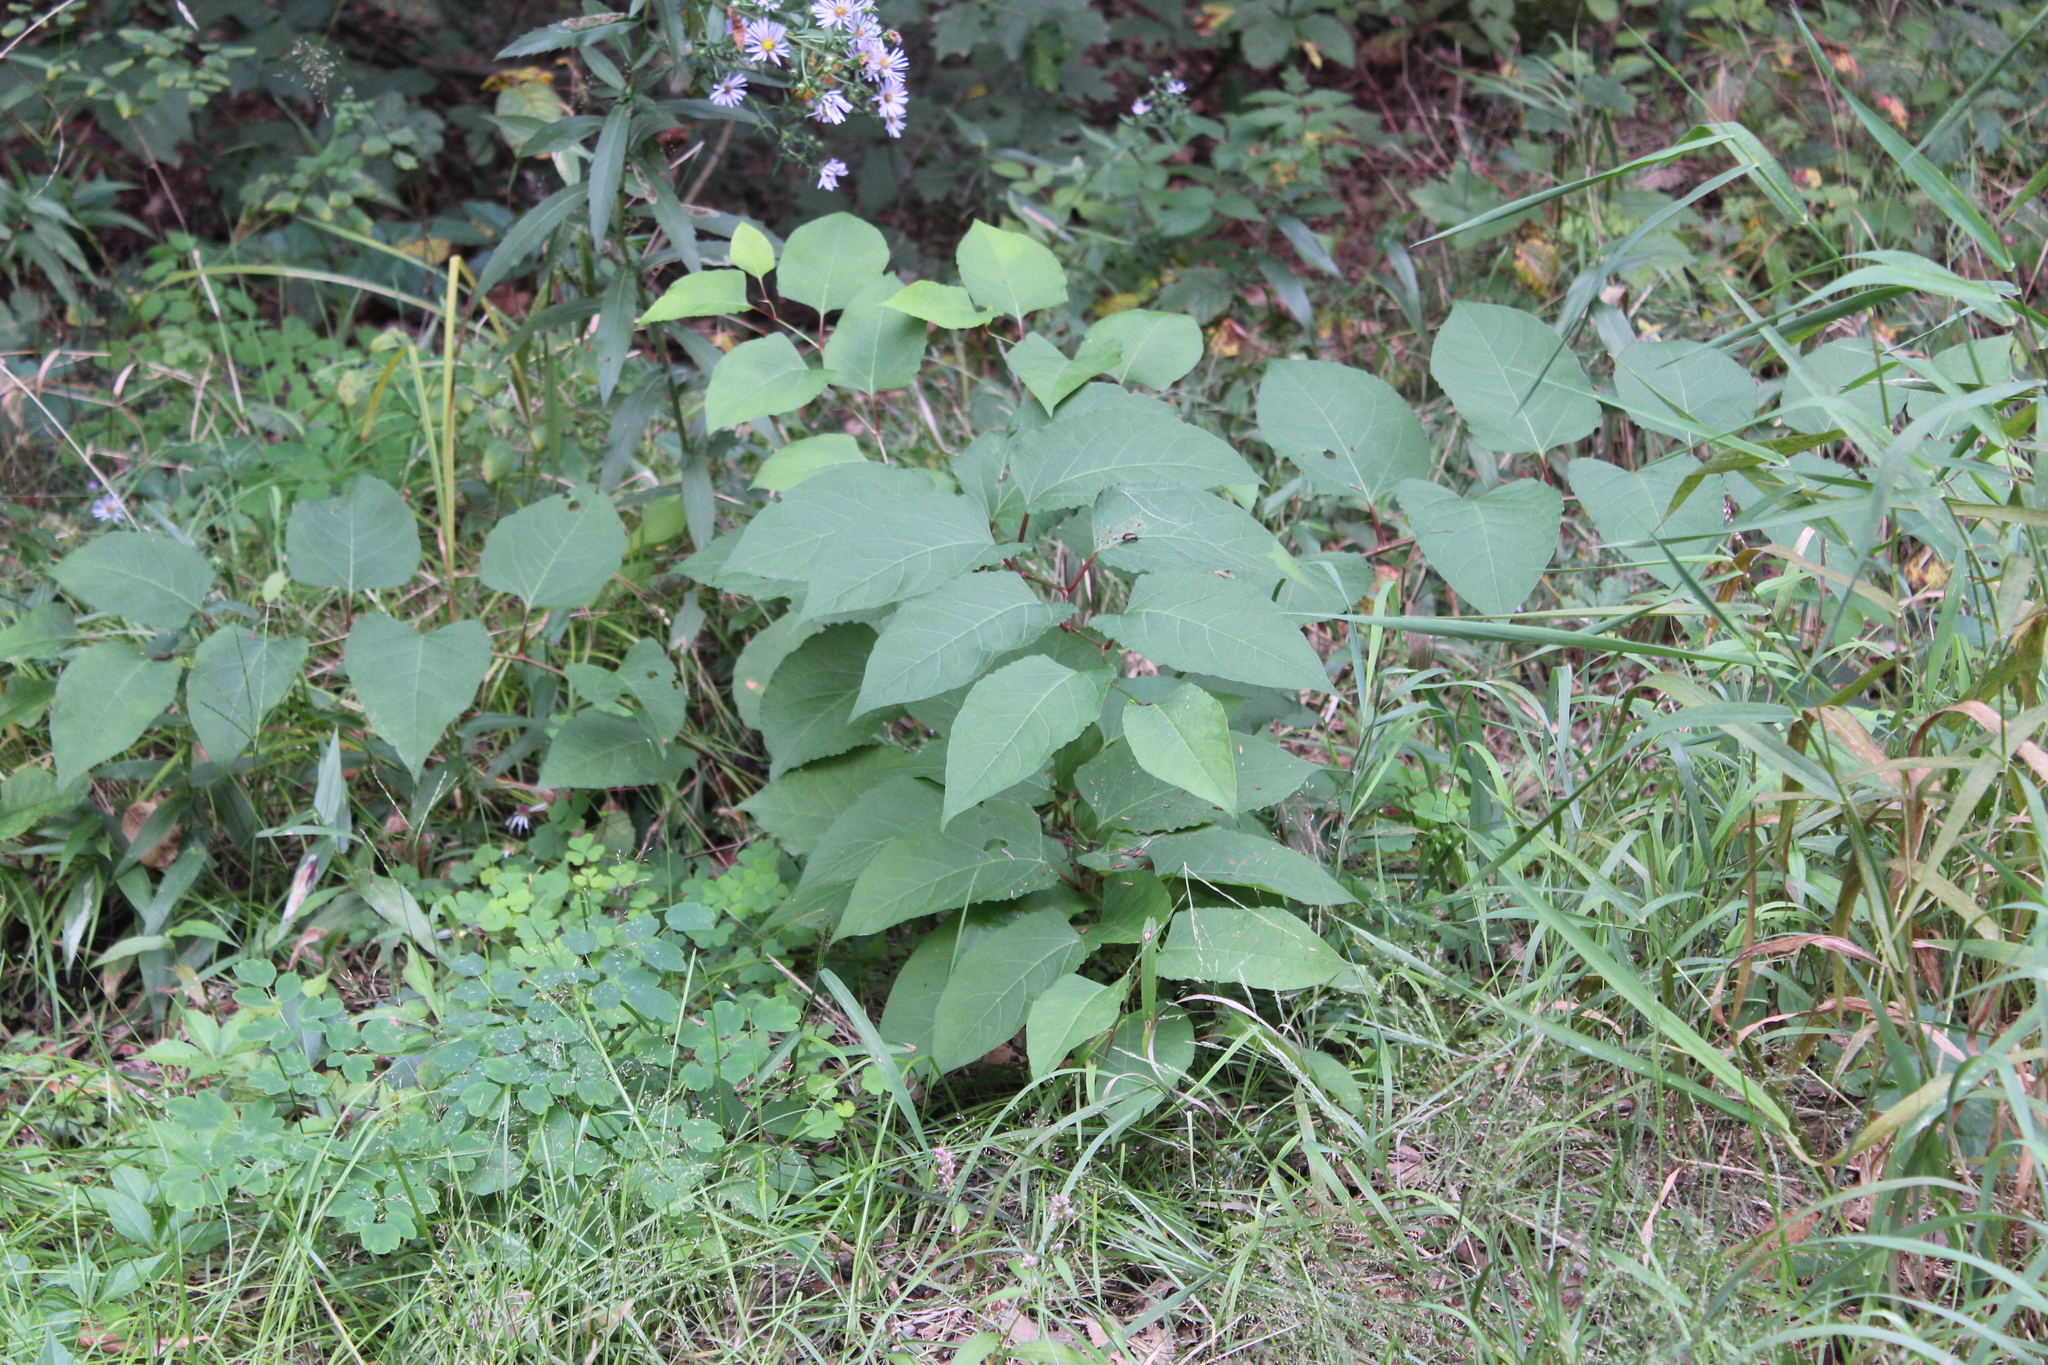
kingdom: Plantae
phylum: Tracheophyta
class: Magnoliopsida
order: Caryophyllales
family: Polygonaceae
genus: Reynoutria
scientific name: Reynoutria japonica
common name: Japanese knotweed
